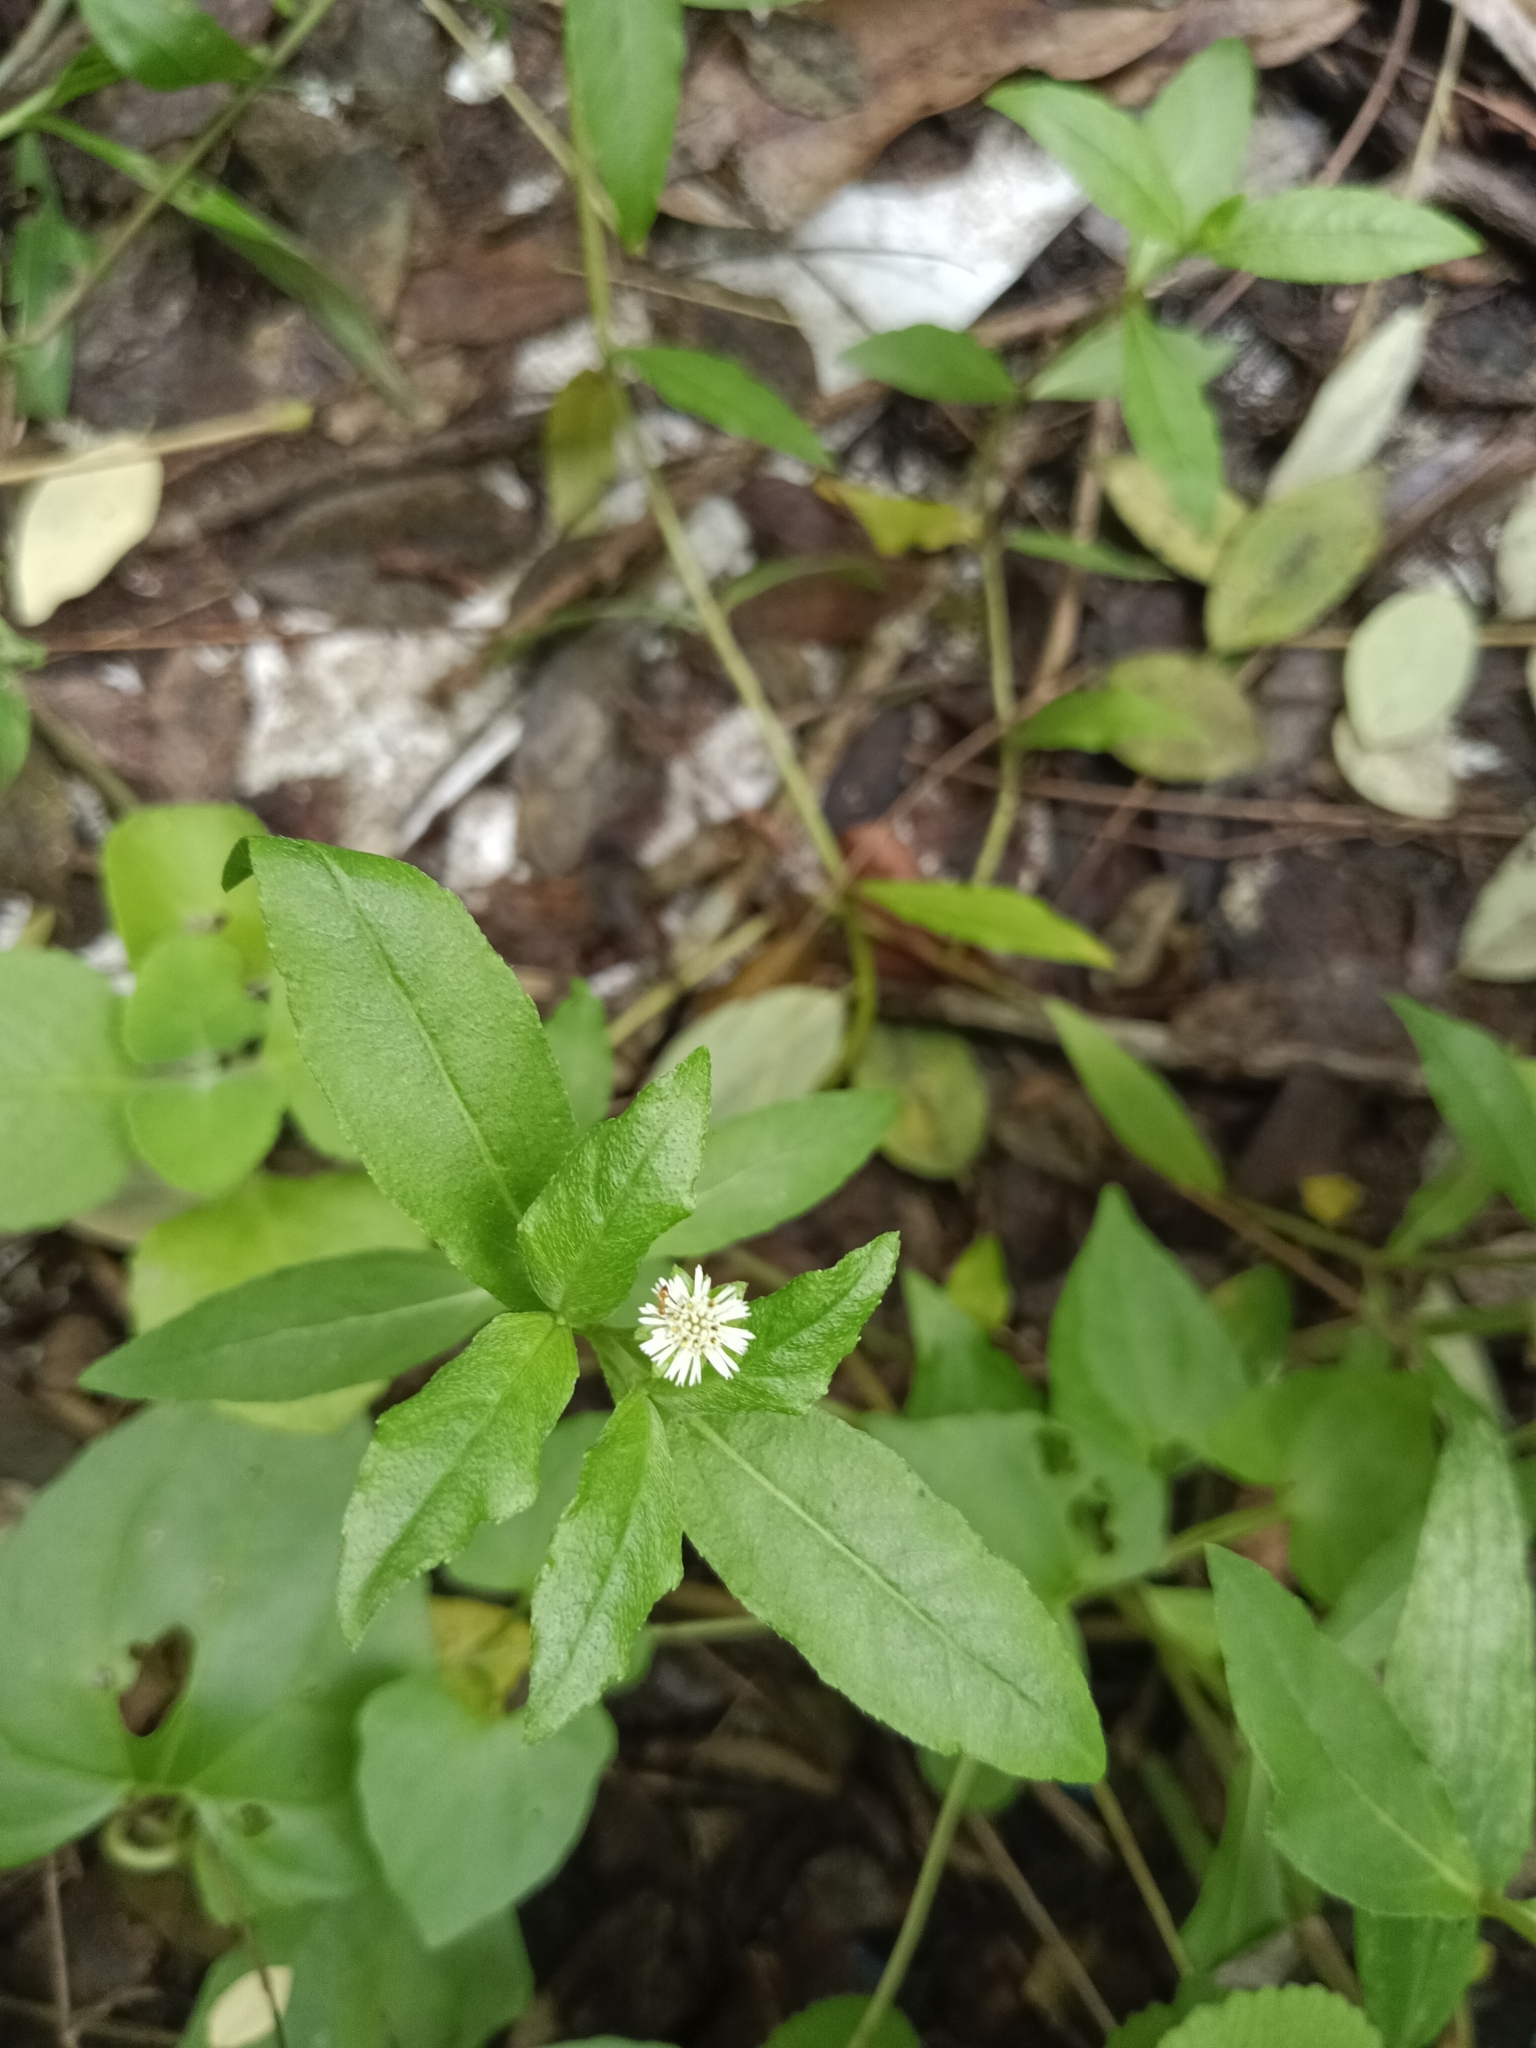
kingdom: Plantae
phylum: Tracheophyta
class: Magnoliopsida
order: Asterales
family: Asteraceae
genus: Eclipta
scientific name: Eclipta prostrata
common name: False daisy
